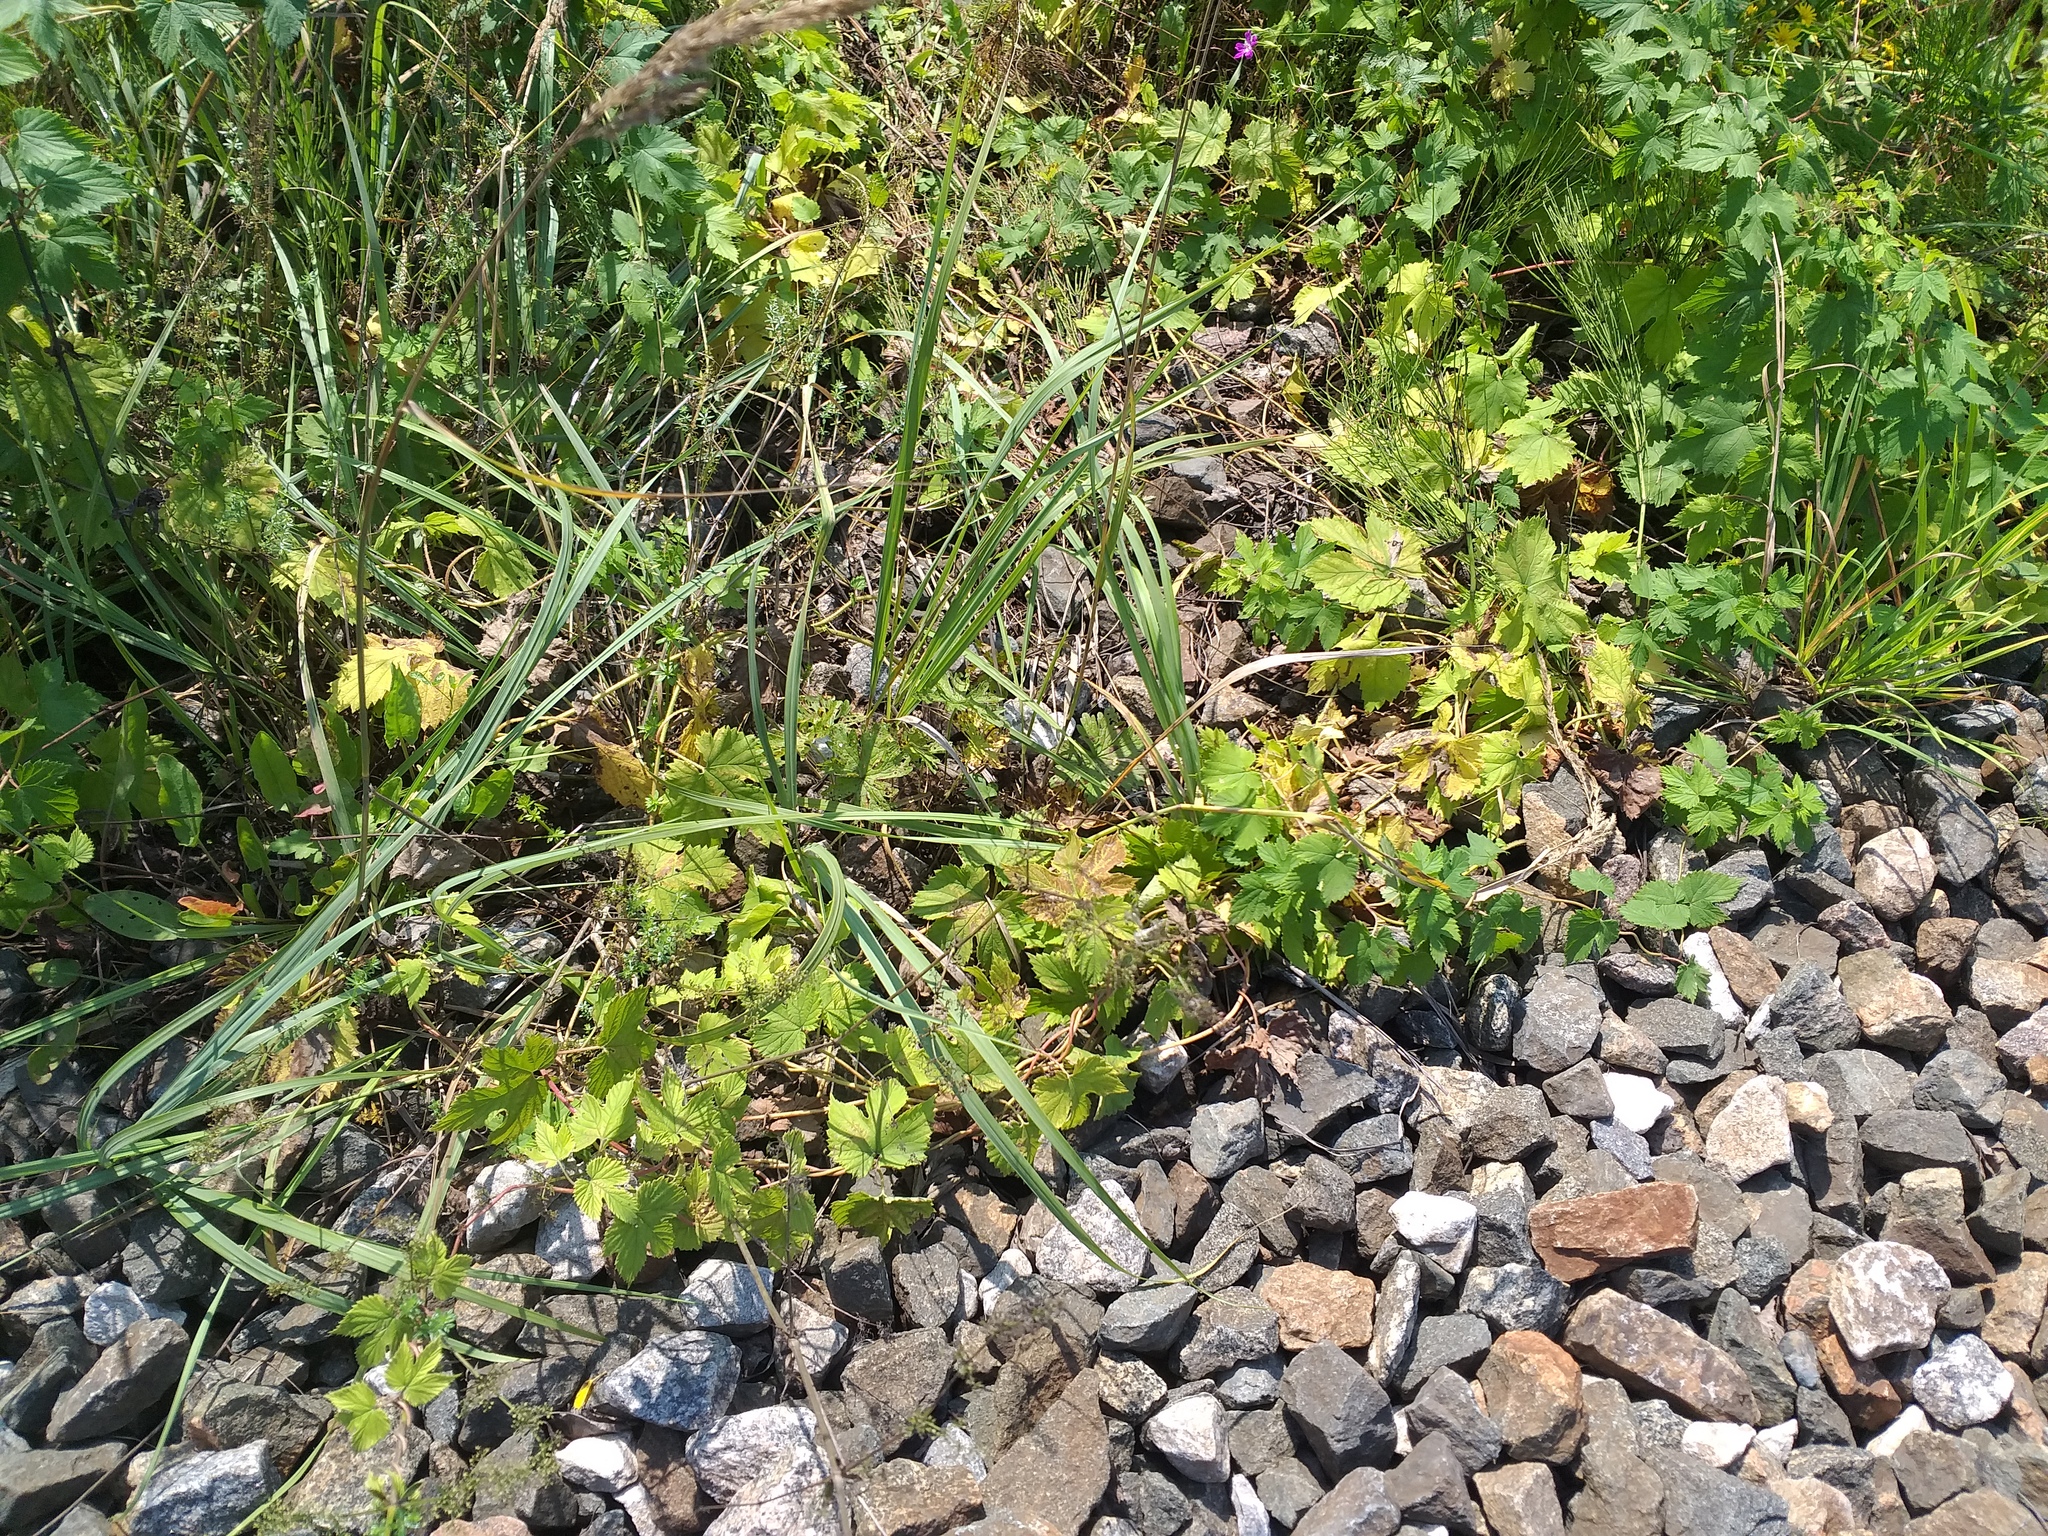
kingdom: Plantae
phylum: Tracheophyta
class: Magnoliopsida
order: Rosales
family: Cannabaceae
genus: Humulus
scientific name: Humulus lupulus
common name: Hop
